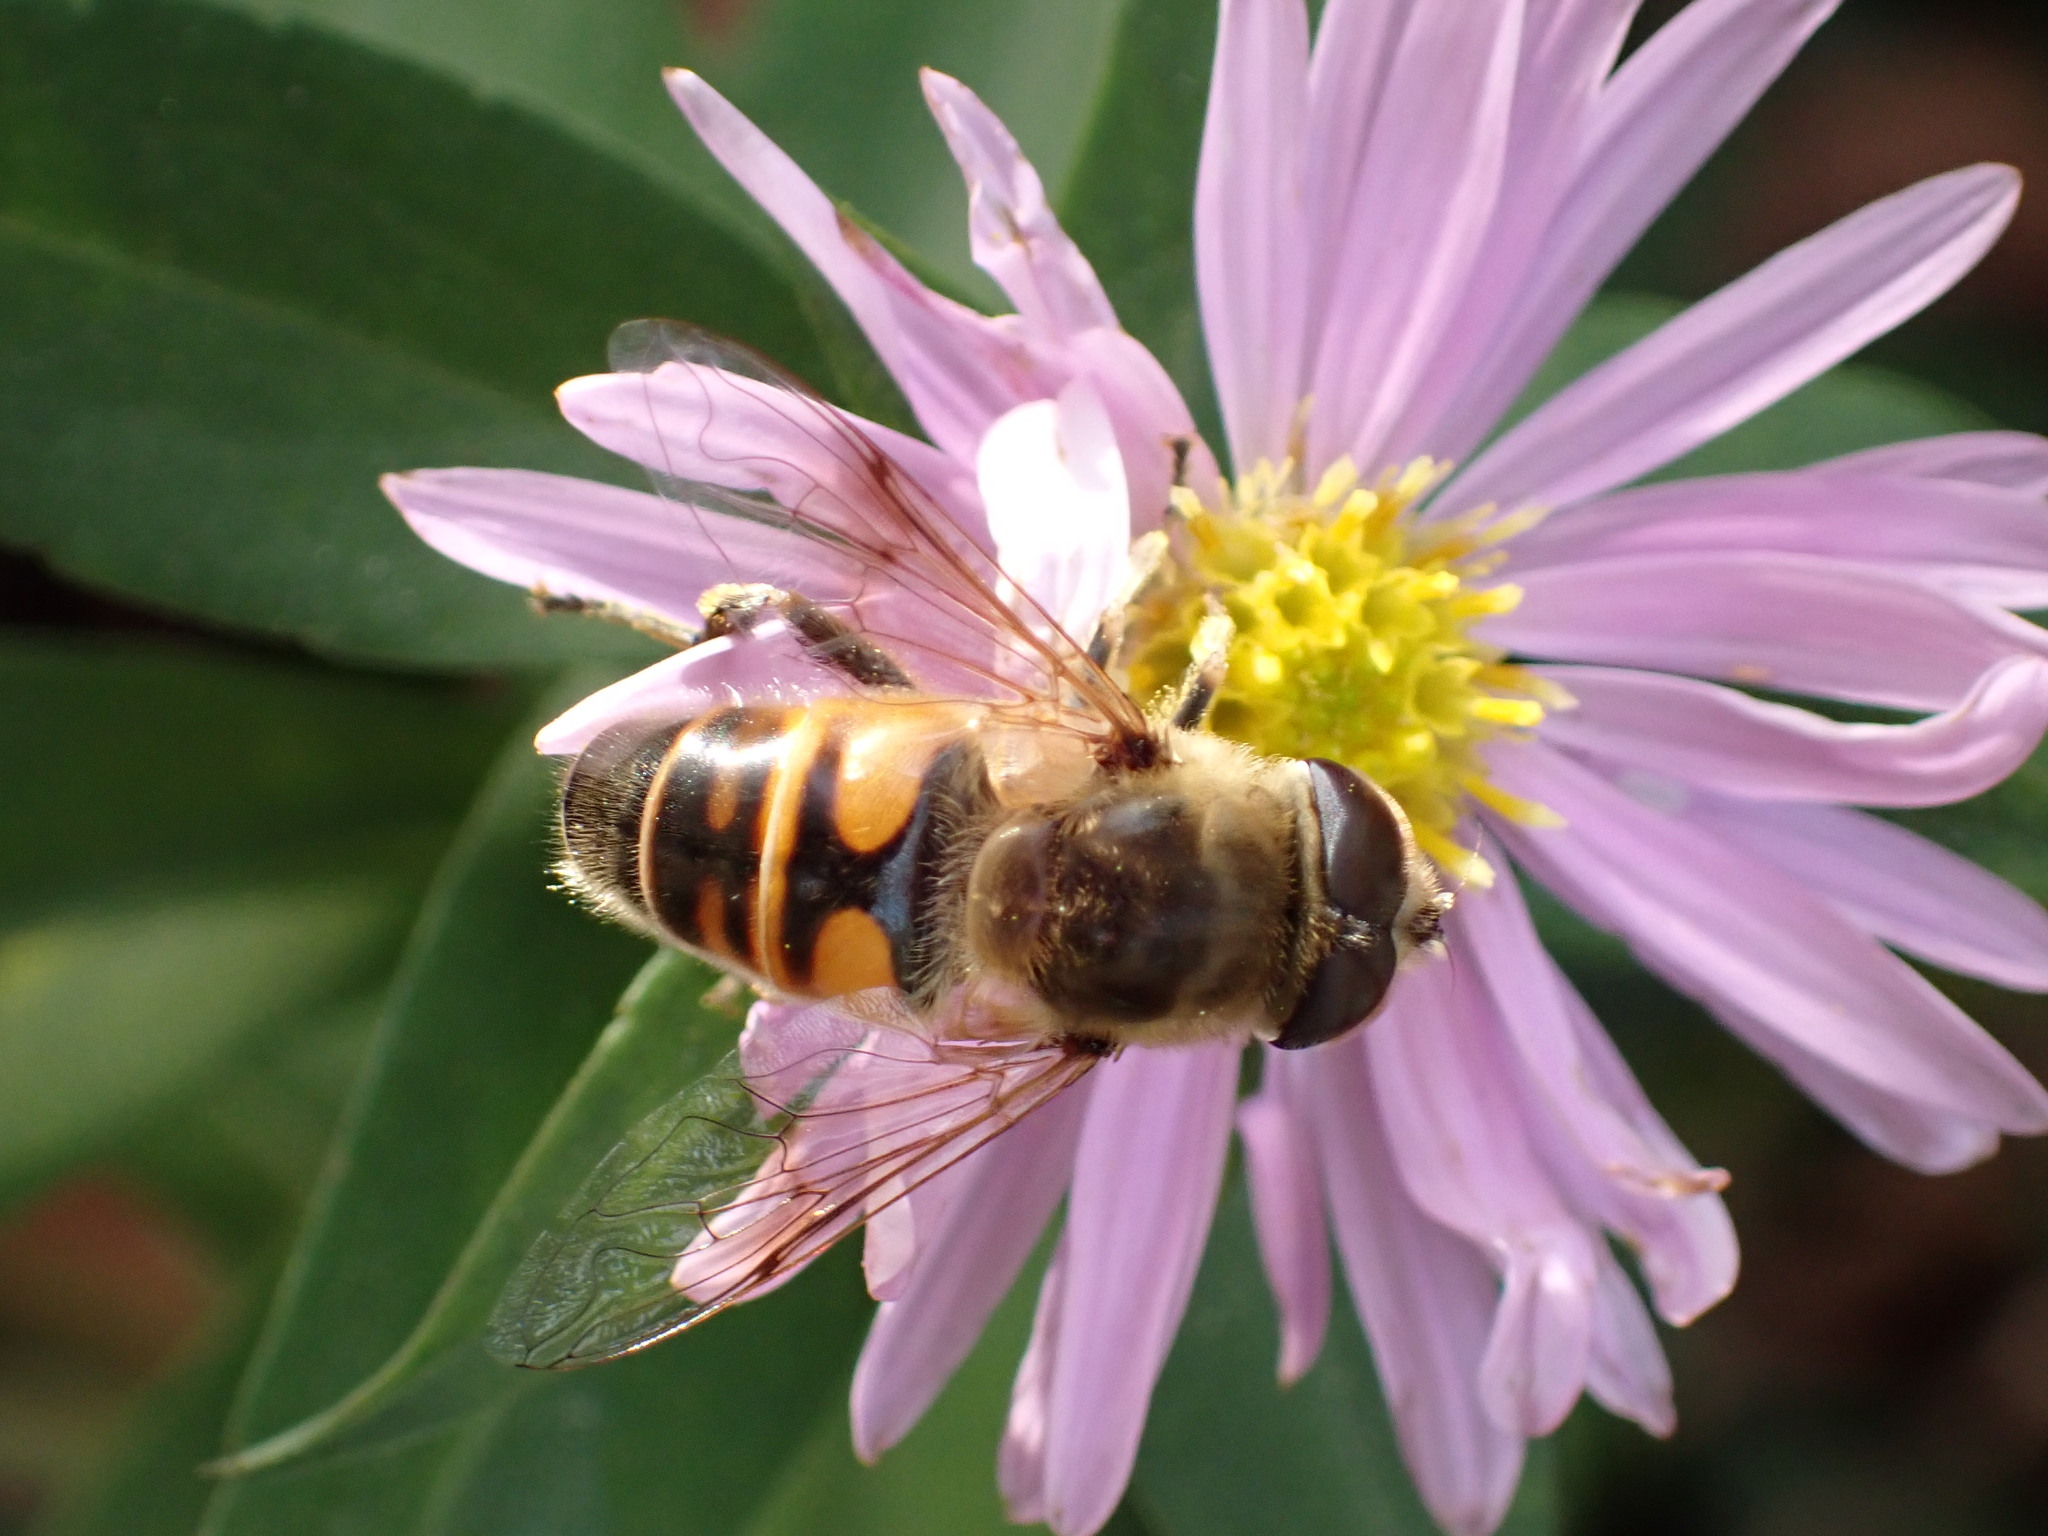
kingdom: Animalia
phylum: Arthropoda
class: Insecta
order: Diptera
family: Syrphidae
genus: Eristalis
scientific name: Eristalis tenax
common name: Drone fly
